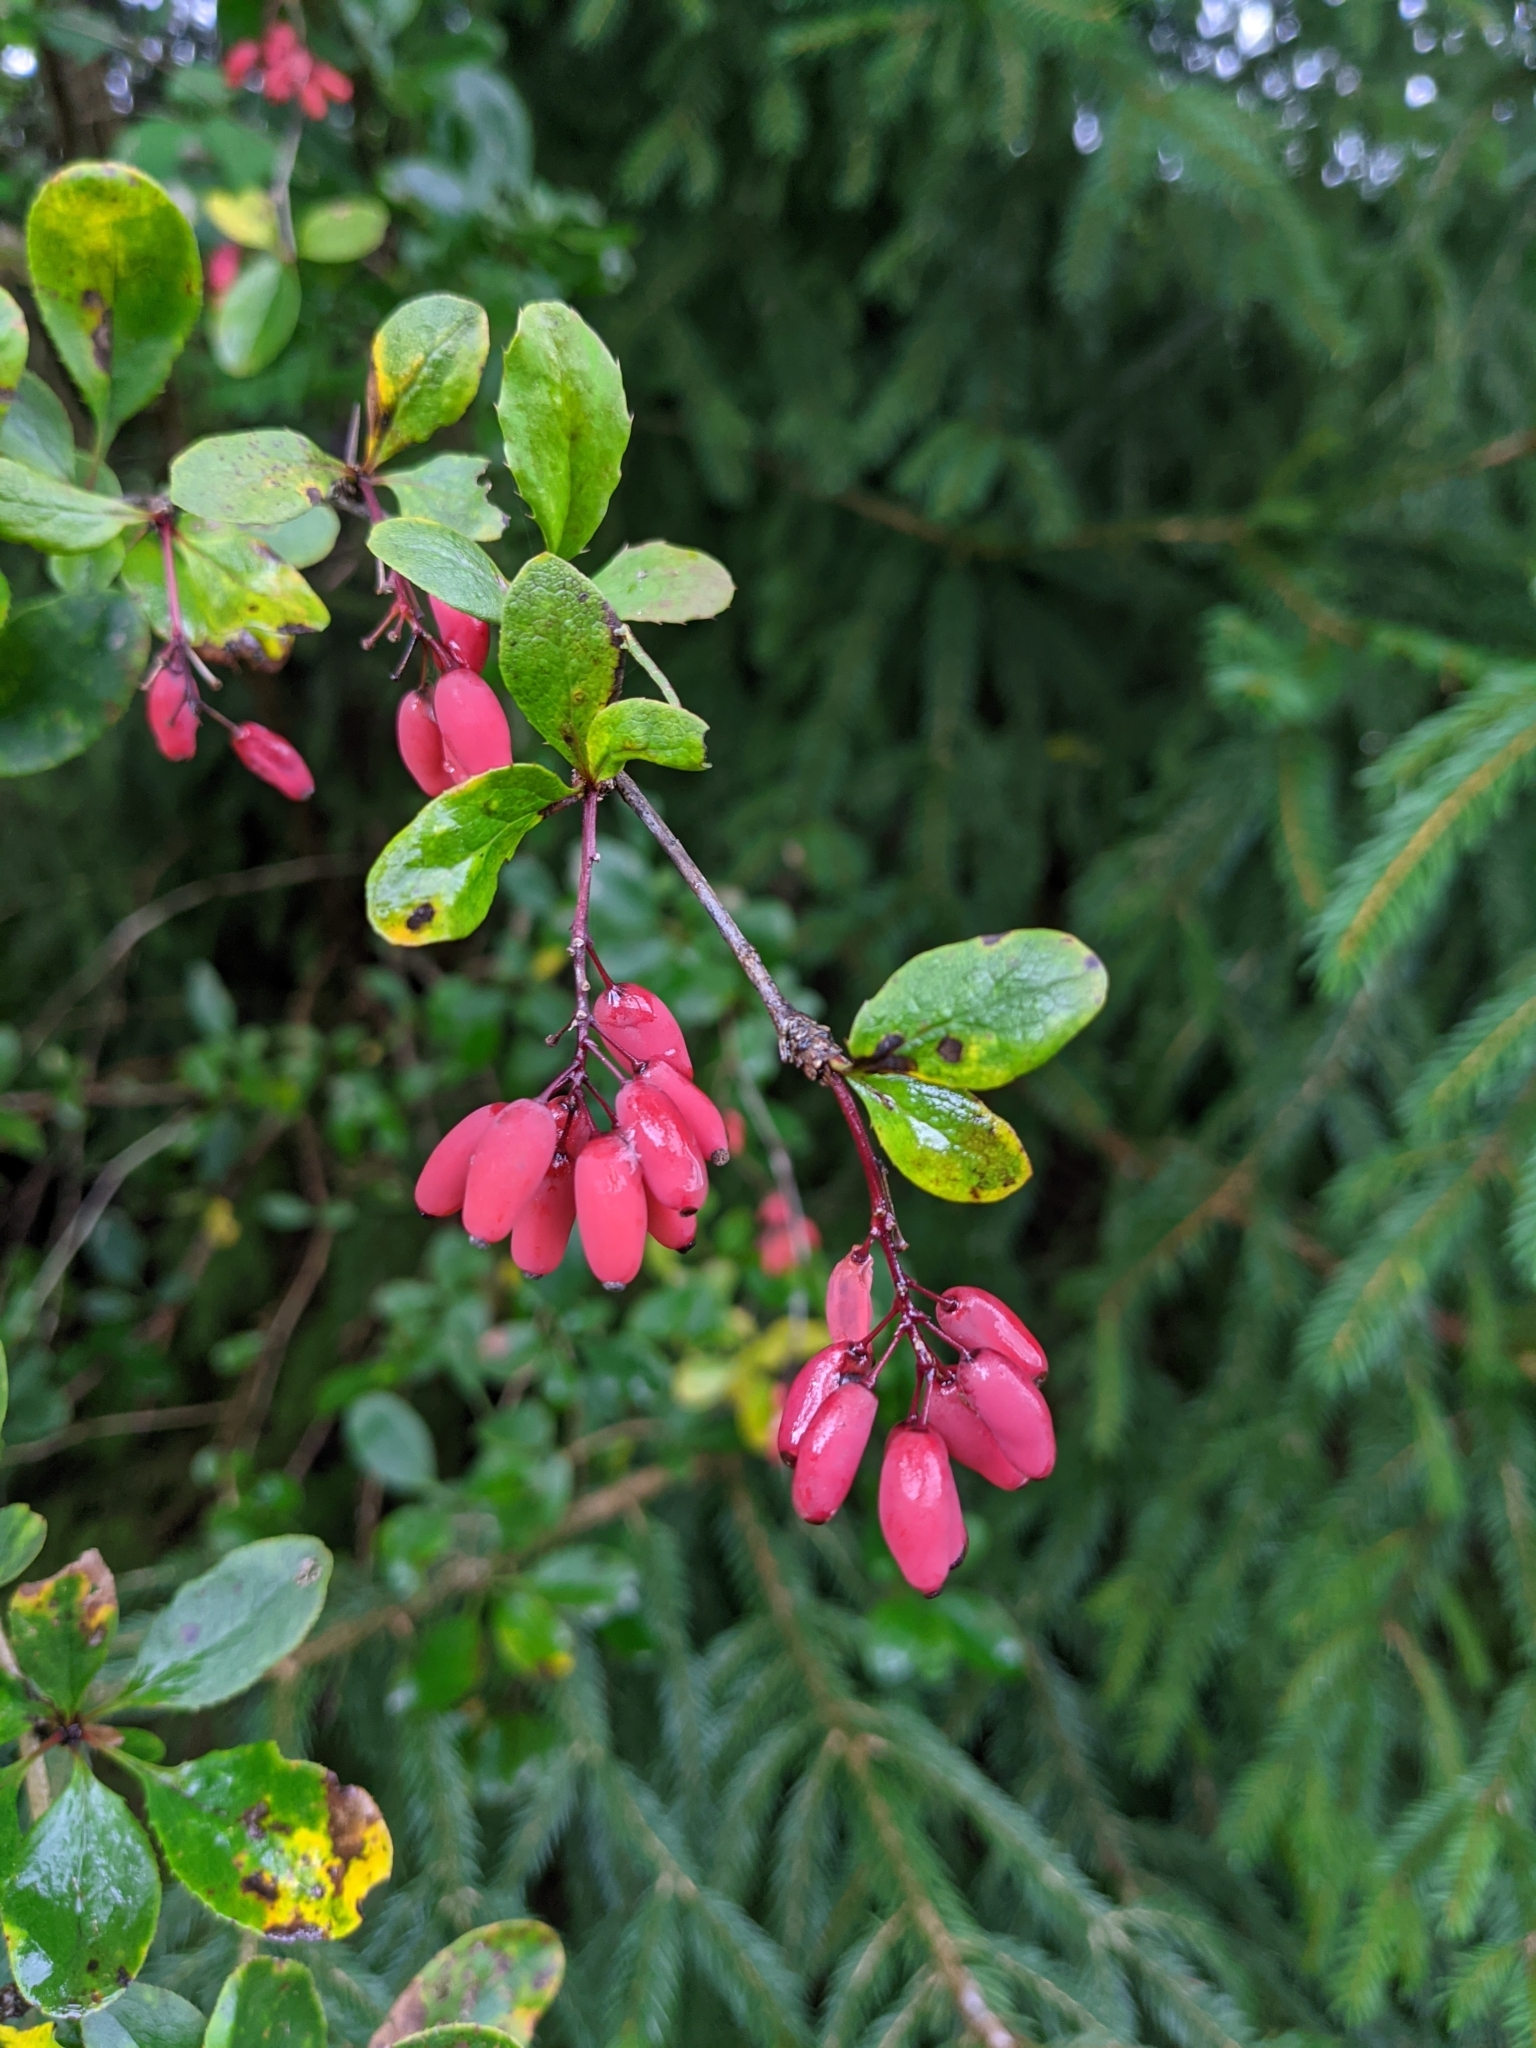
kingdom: Plantae
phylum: Tracheophyta
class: Magnoliopsida
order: Ranunculales
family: Berberidaceae
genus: Berberis
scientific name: Berberis vulgaris
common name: Barberry
